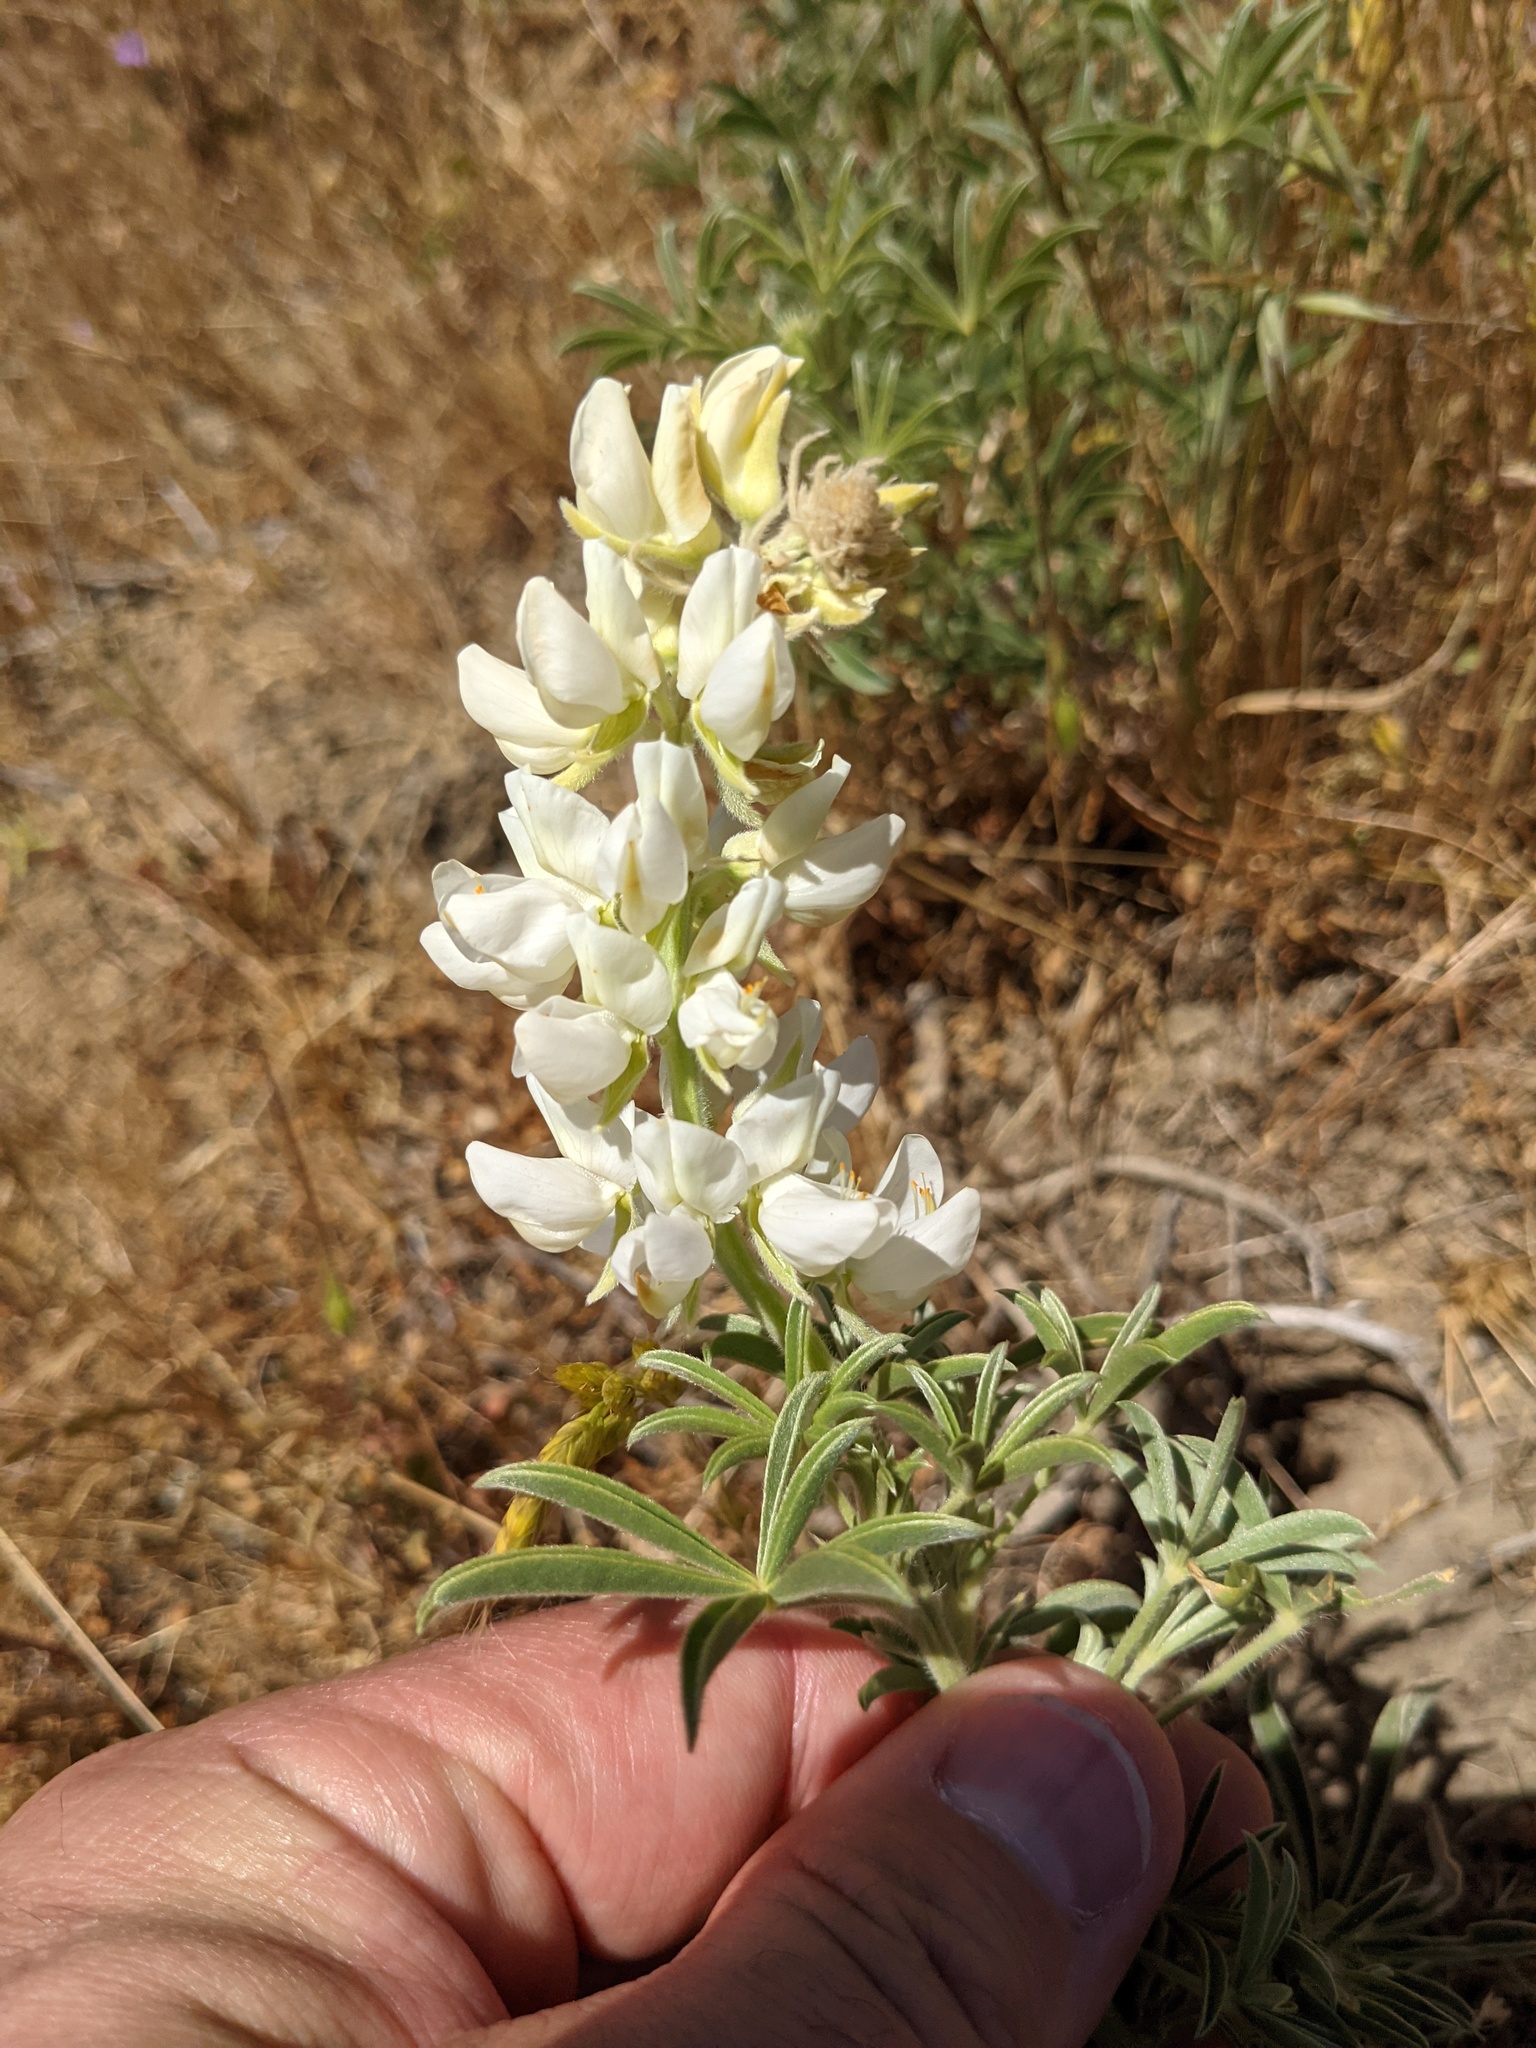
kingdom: Plantae
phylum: Tracheophyta
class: Magnoliopsida
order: Fabales
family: Fabaceae
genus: Lupinus
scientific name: Lupinus microcarpus
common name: Chick lupine
